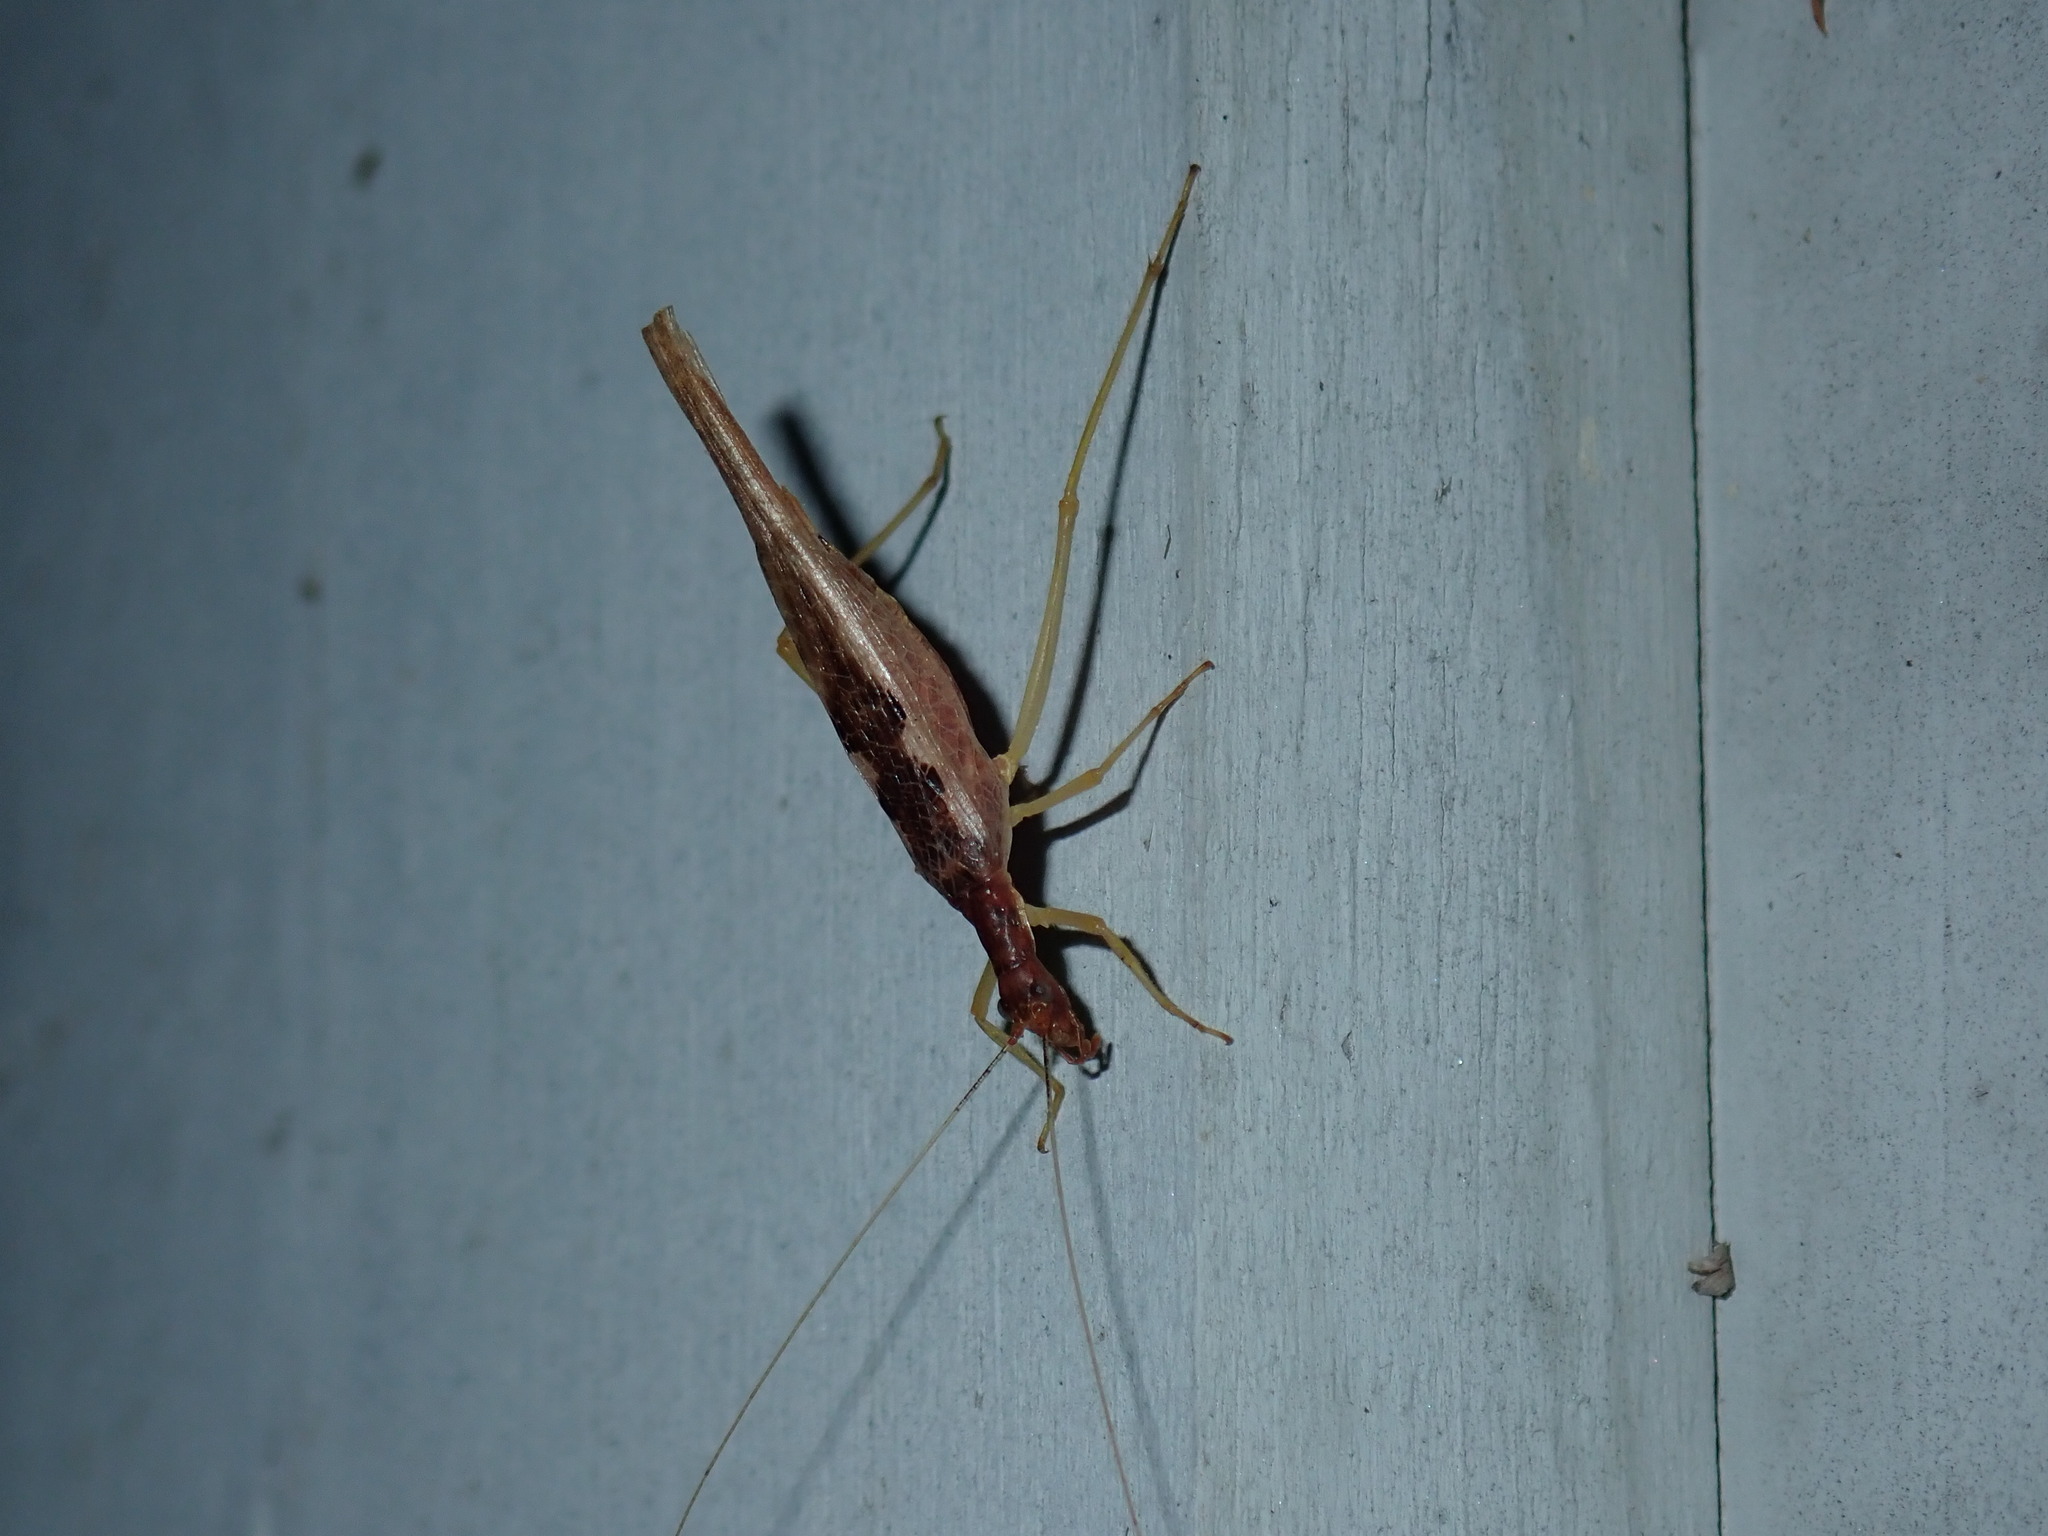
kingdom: Animalia
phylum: Arthropoda
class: Insecta
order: Orthoptera
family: Gryllidae
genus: Neoxabea
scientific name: Neoxabea bipunctata
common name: Two-spotted tree cricket
